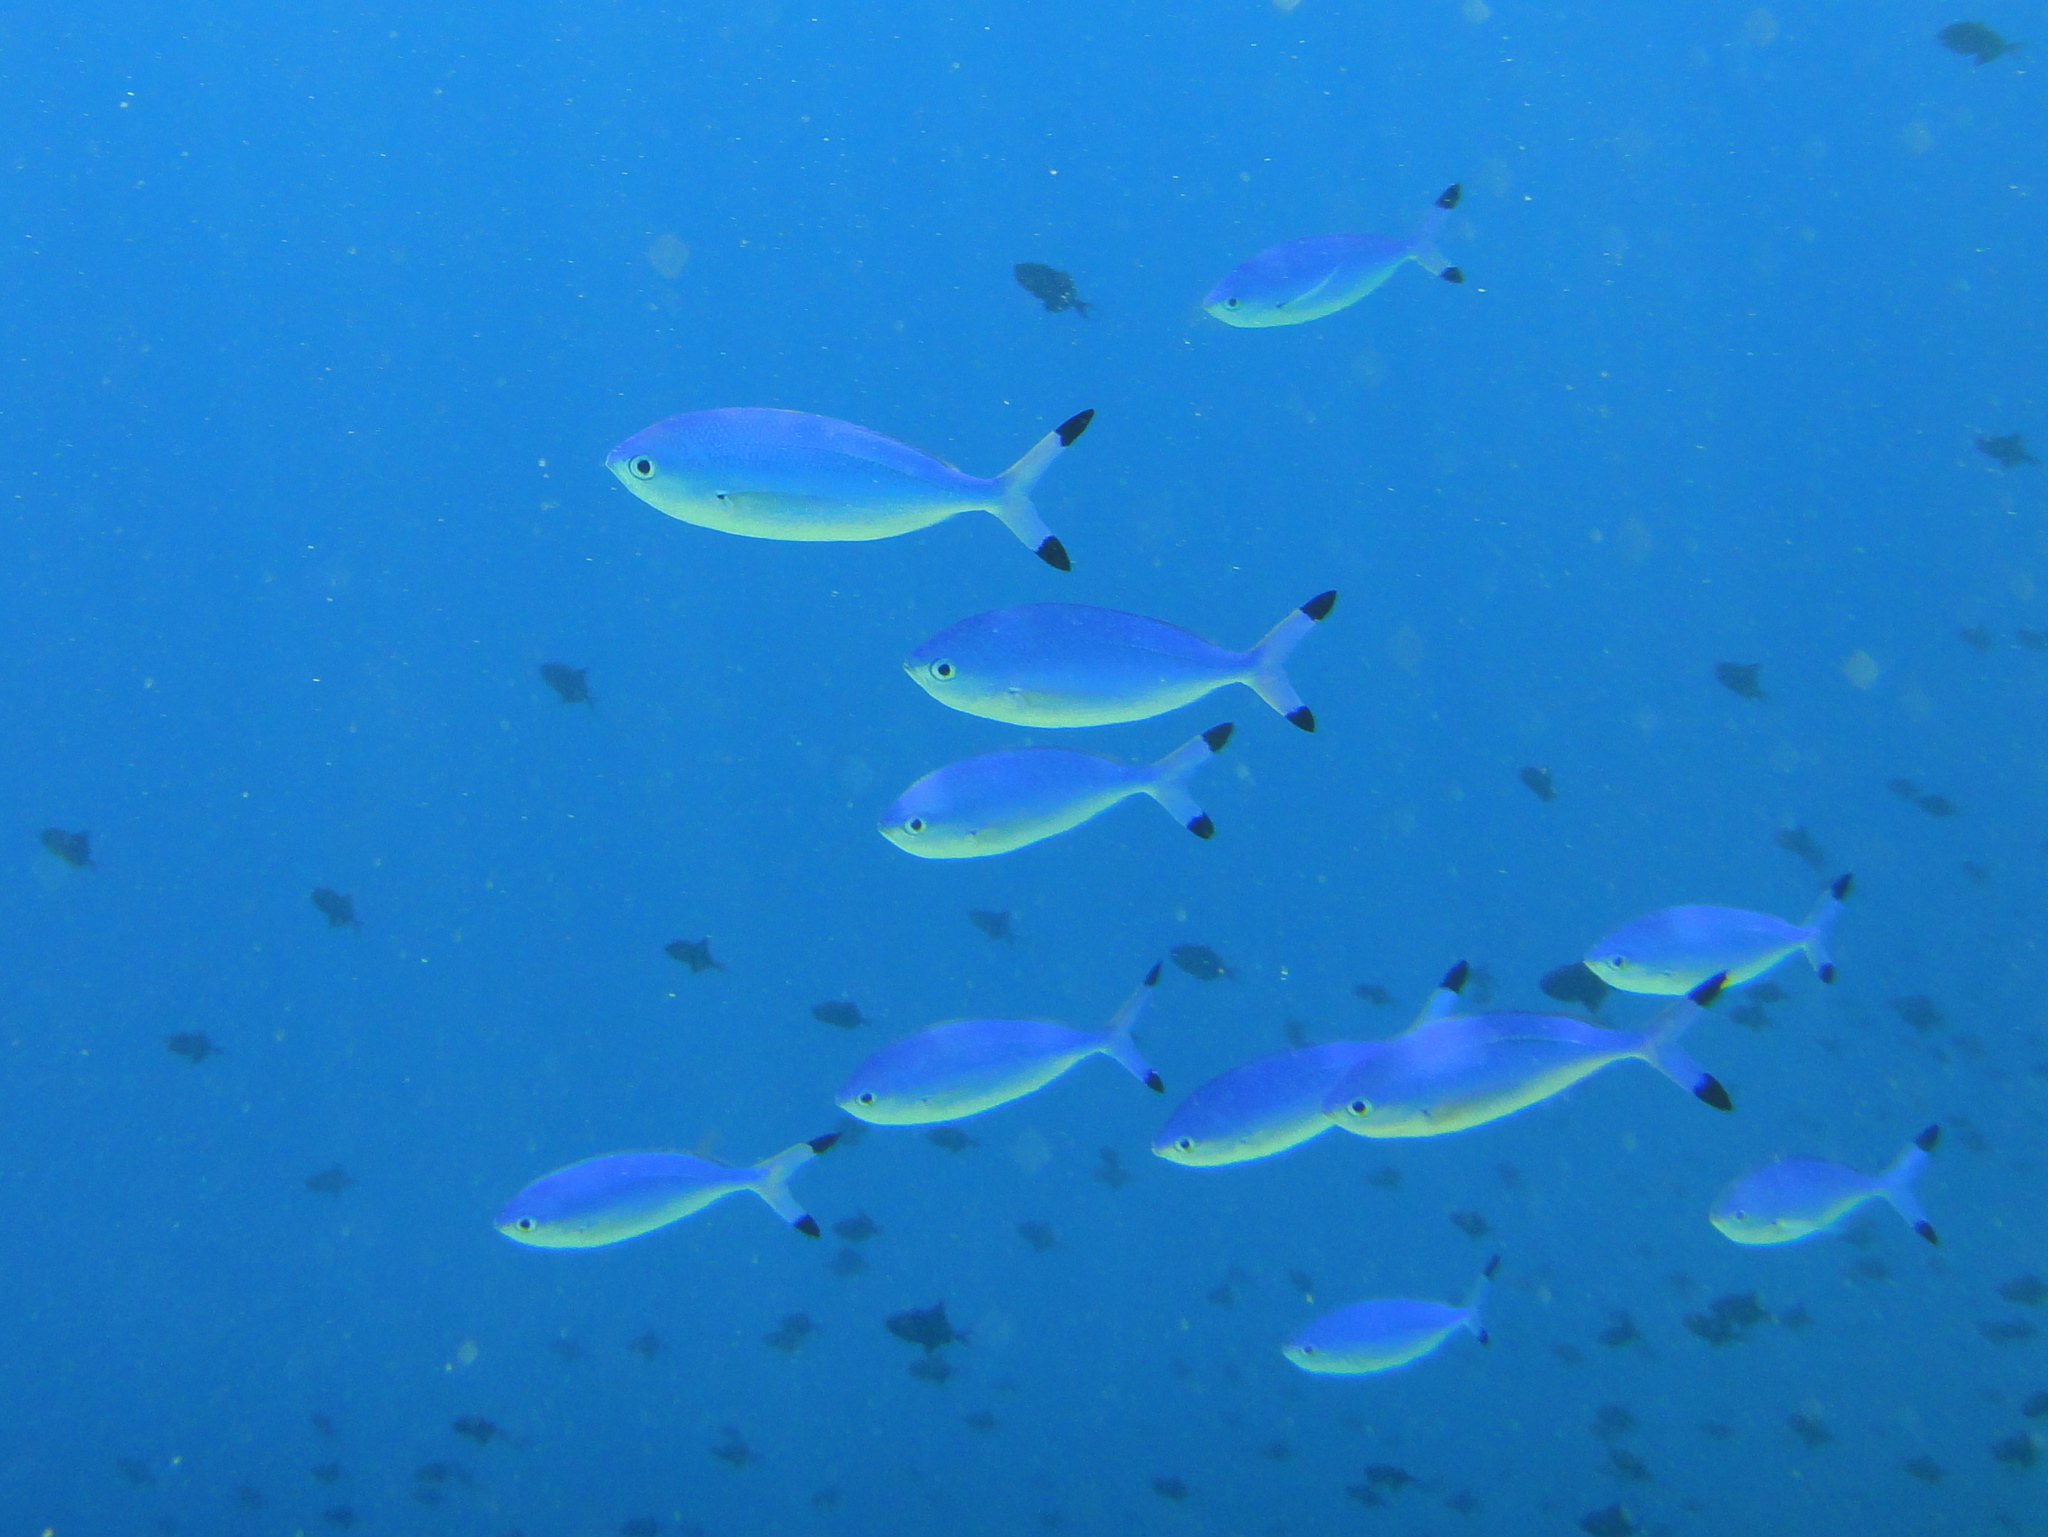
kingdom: Animalia
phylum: Chordata
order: Perciformes
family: Caesionidae
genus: Caesio
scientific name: Caesio lunaris
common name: Blue fusilier
